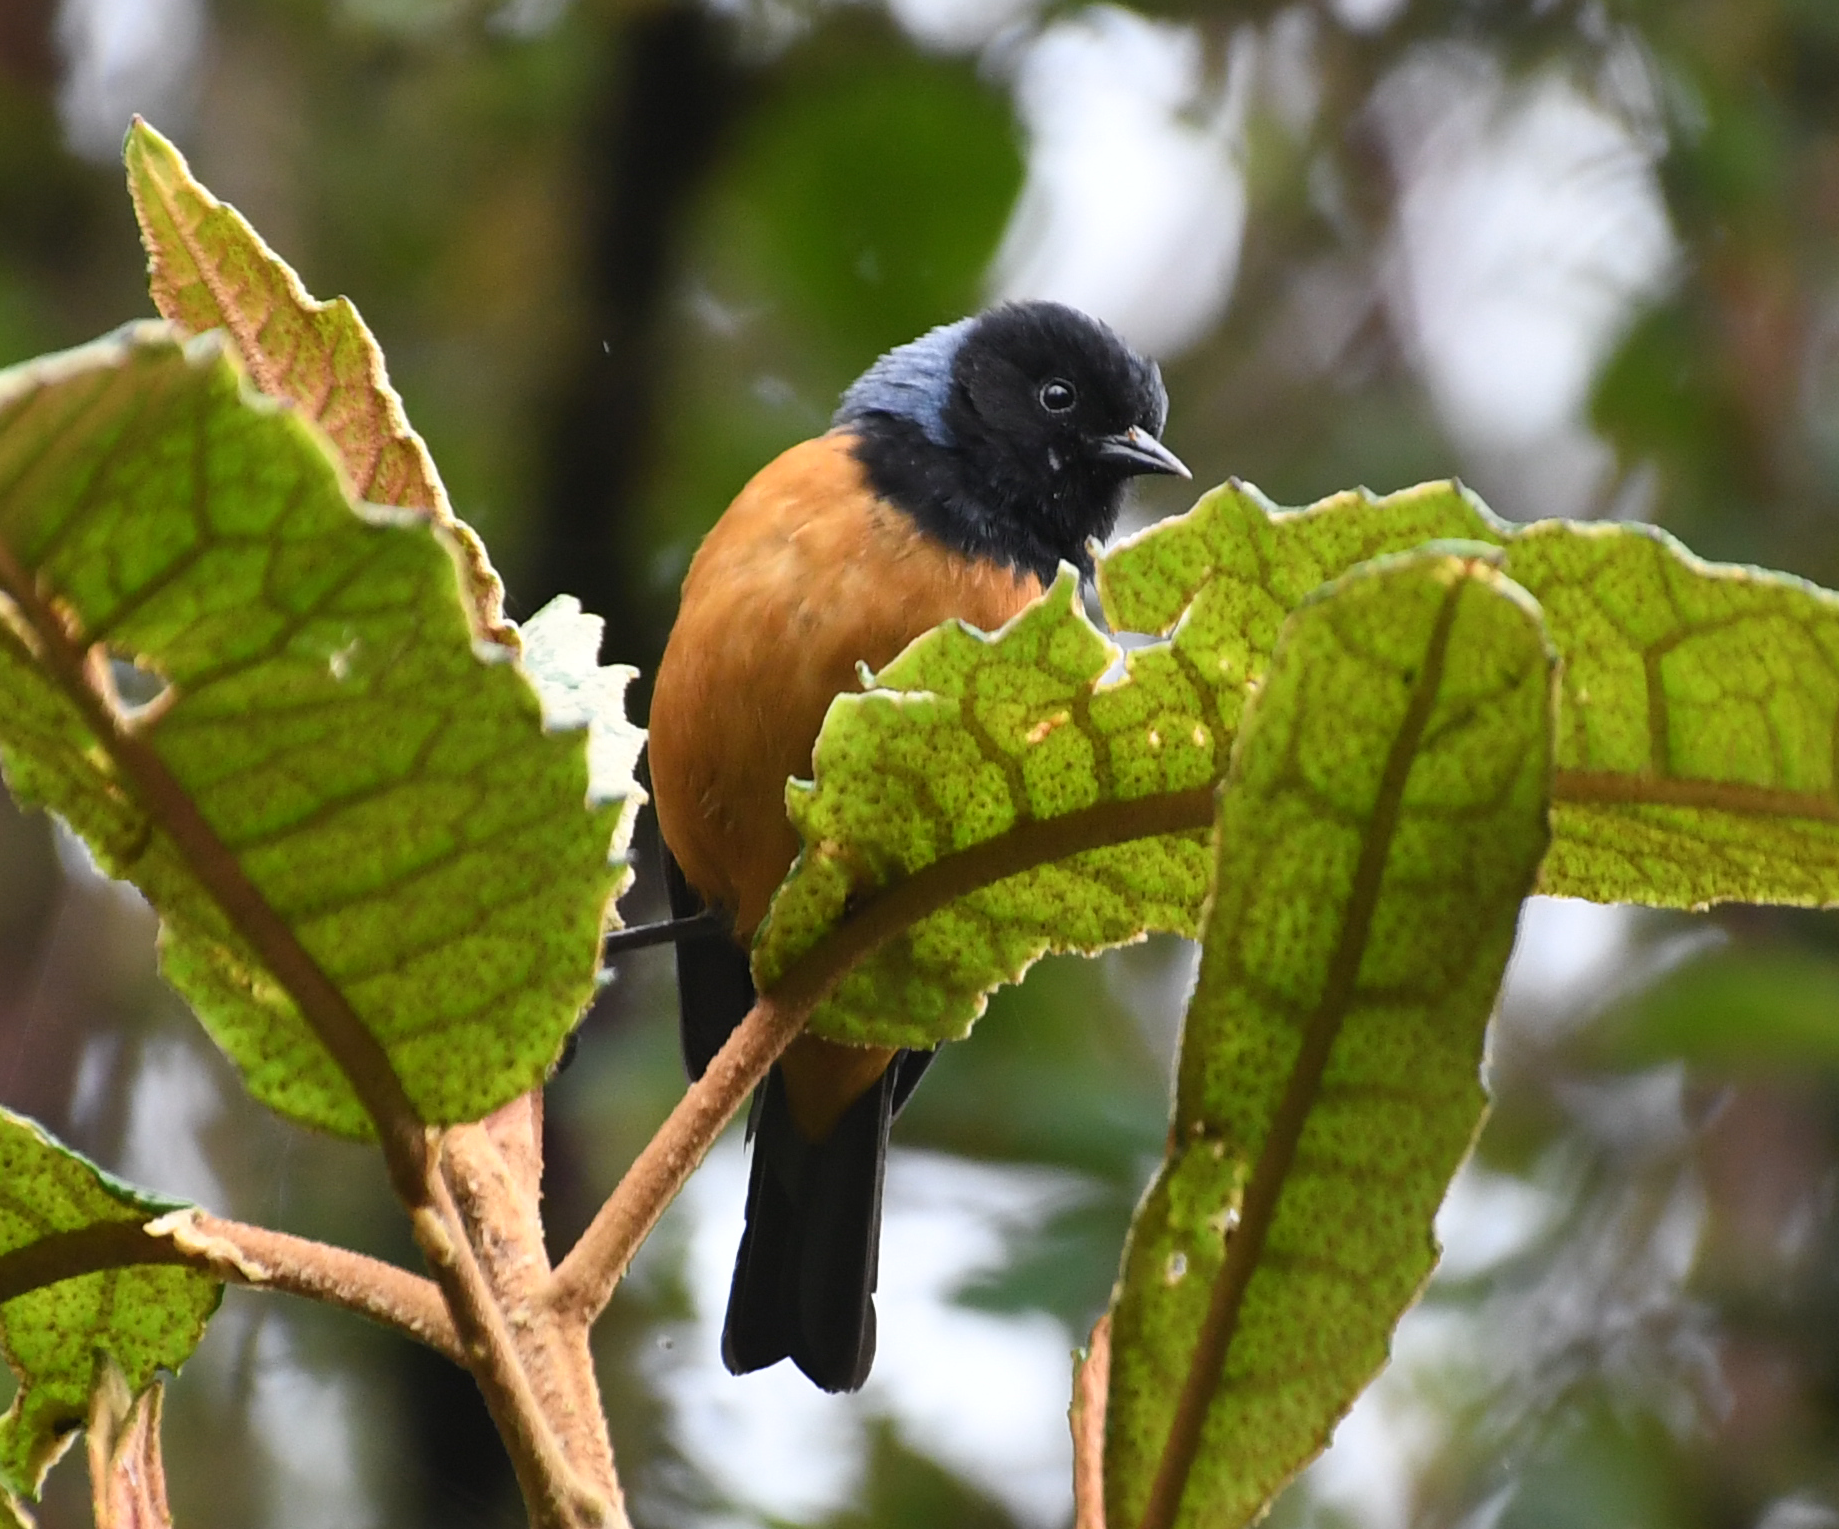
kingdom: Animalia
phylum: Chordata
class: Aves
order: Passeriformes
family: Thraupidae
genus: Conirostrum
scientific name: Conirostrum sitticolor
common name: Blue-backed conebill
